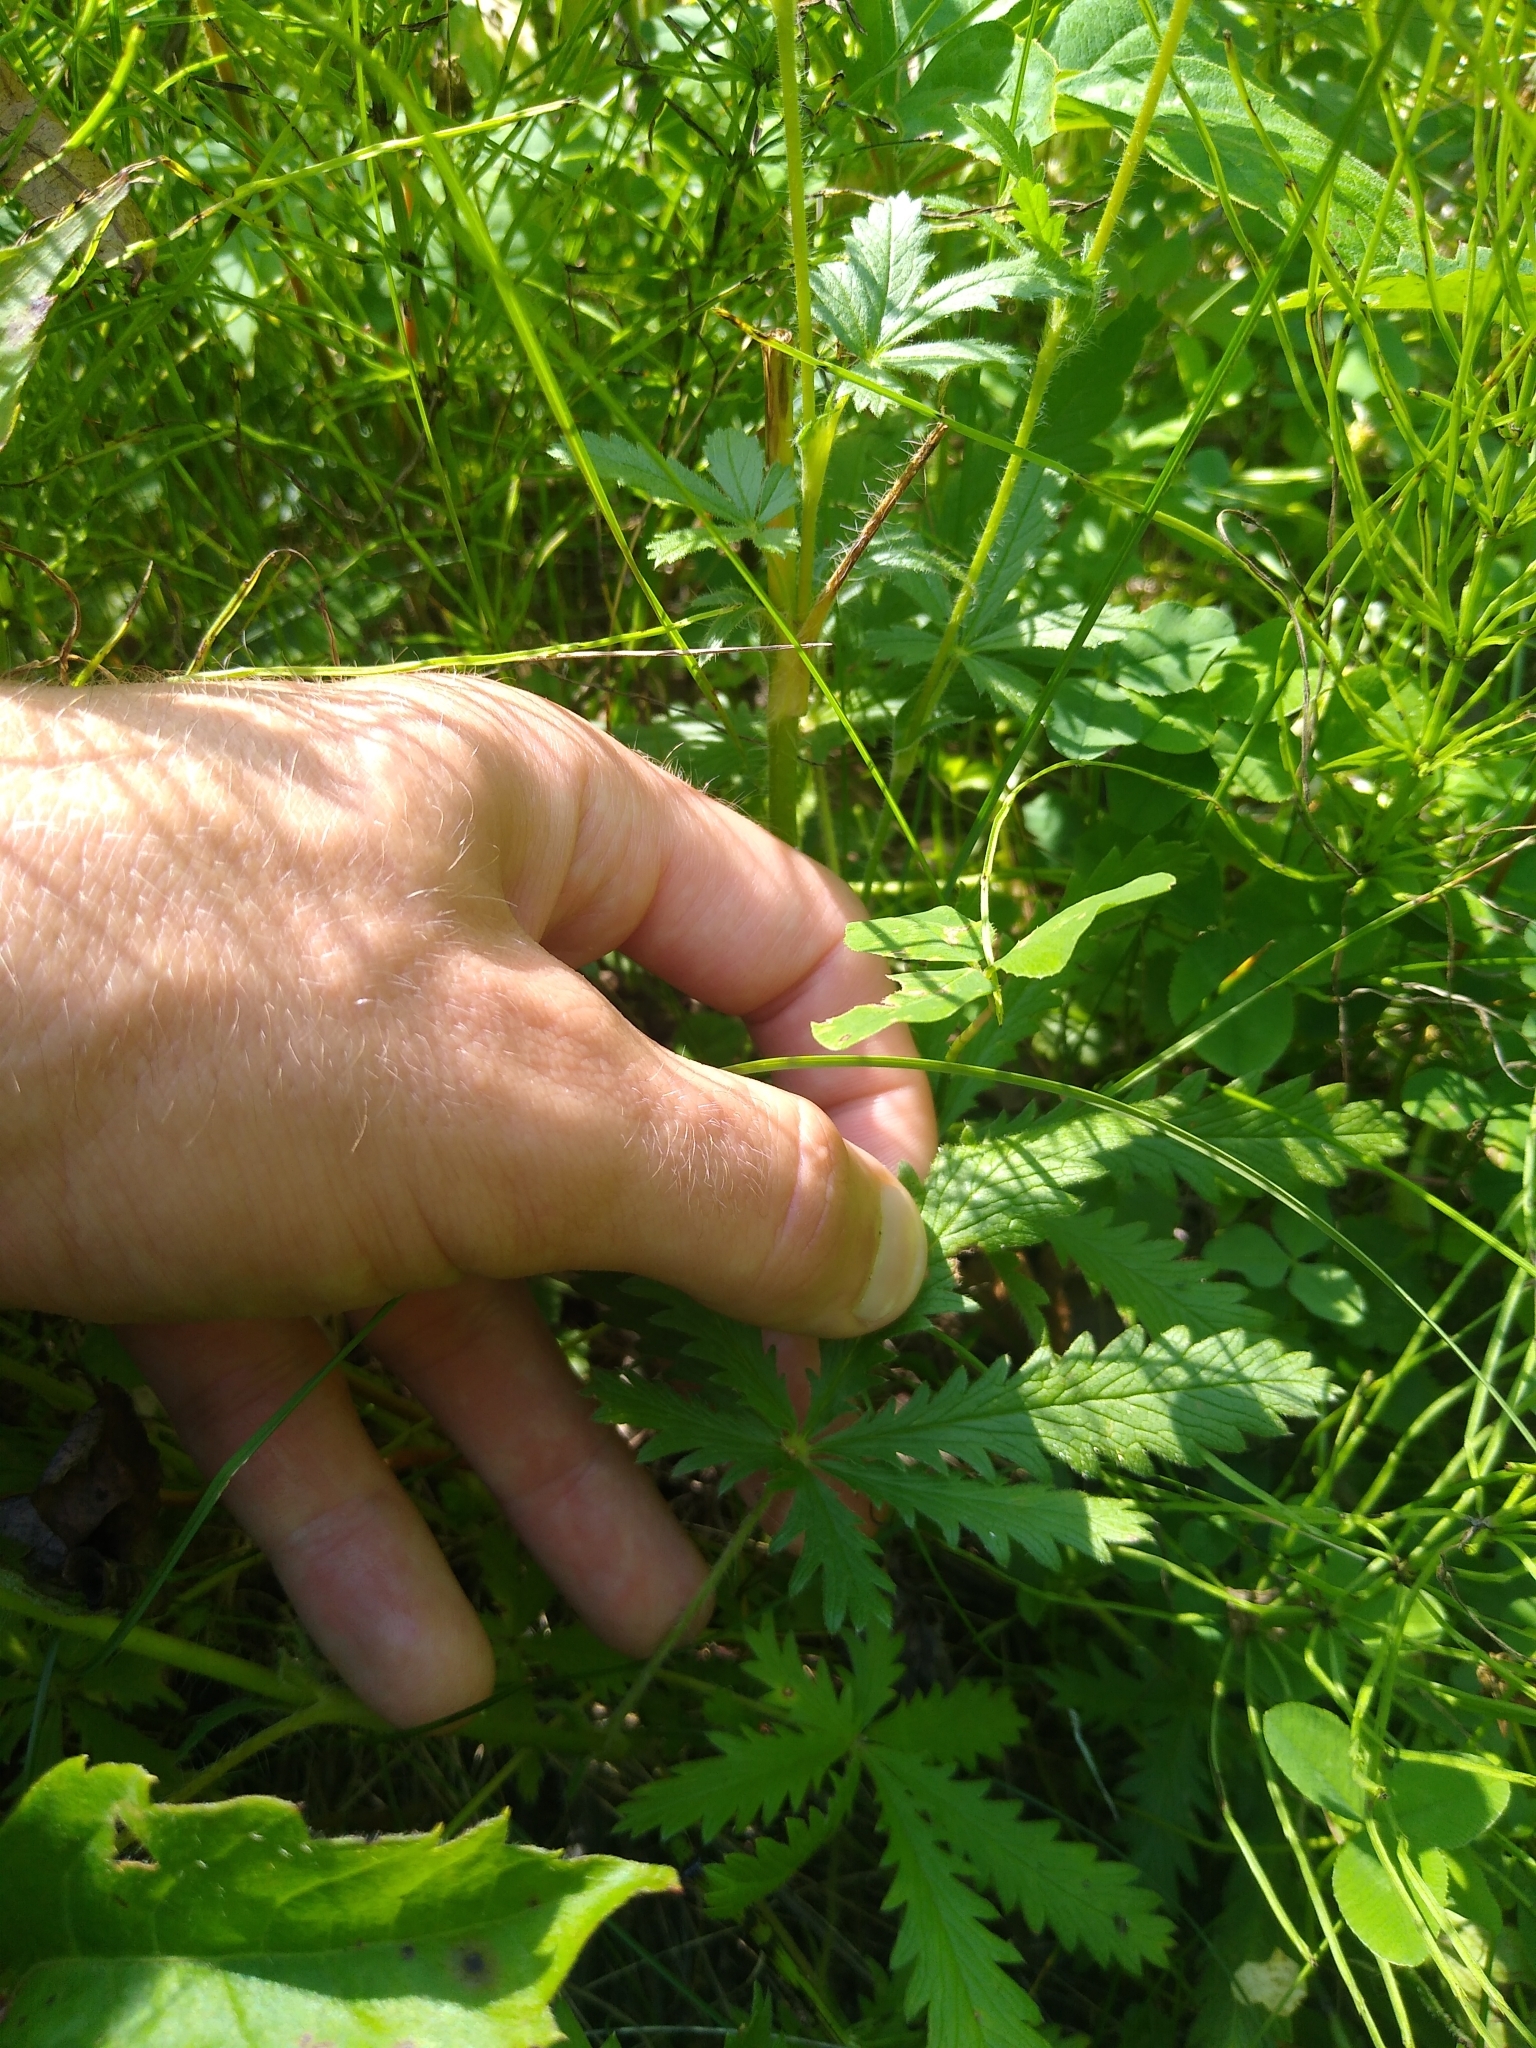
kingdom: Plantae
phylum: Tracheophyta
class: Magnoliopsida
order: Rosales
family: Rosaceae
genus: Potentilla
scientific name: Potentilla recta
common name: Sulphur cinquefoil
